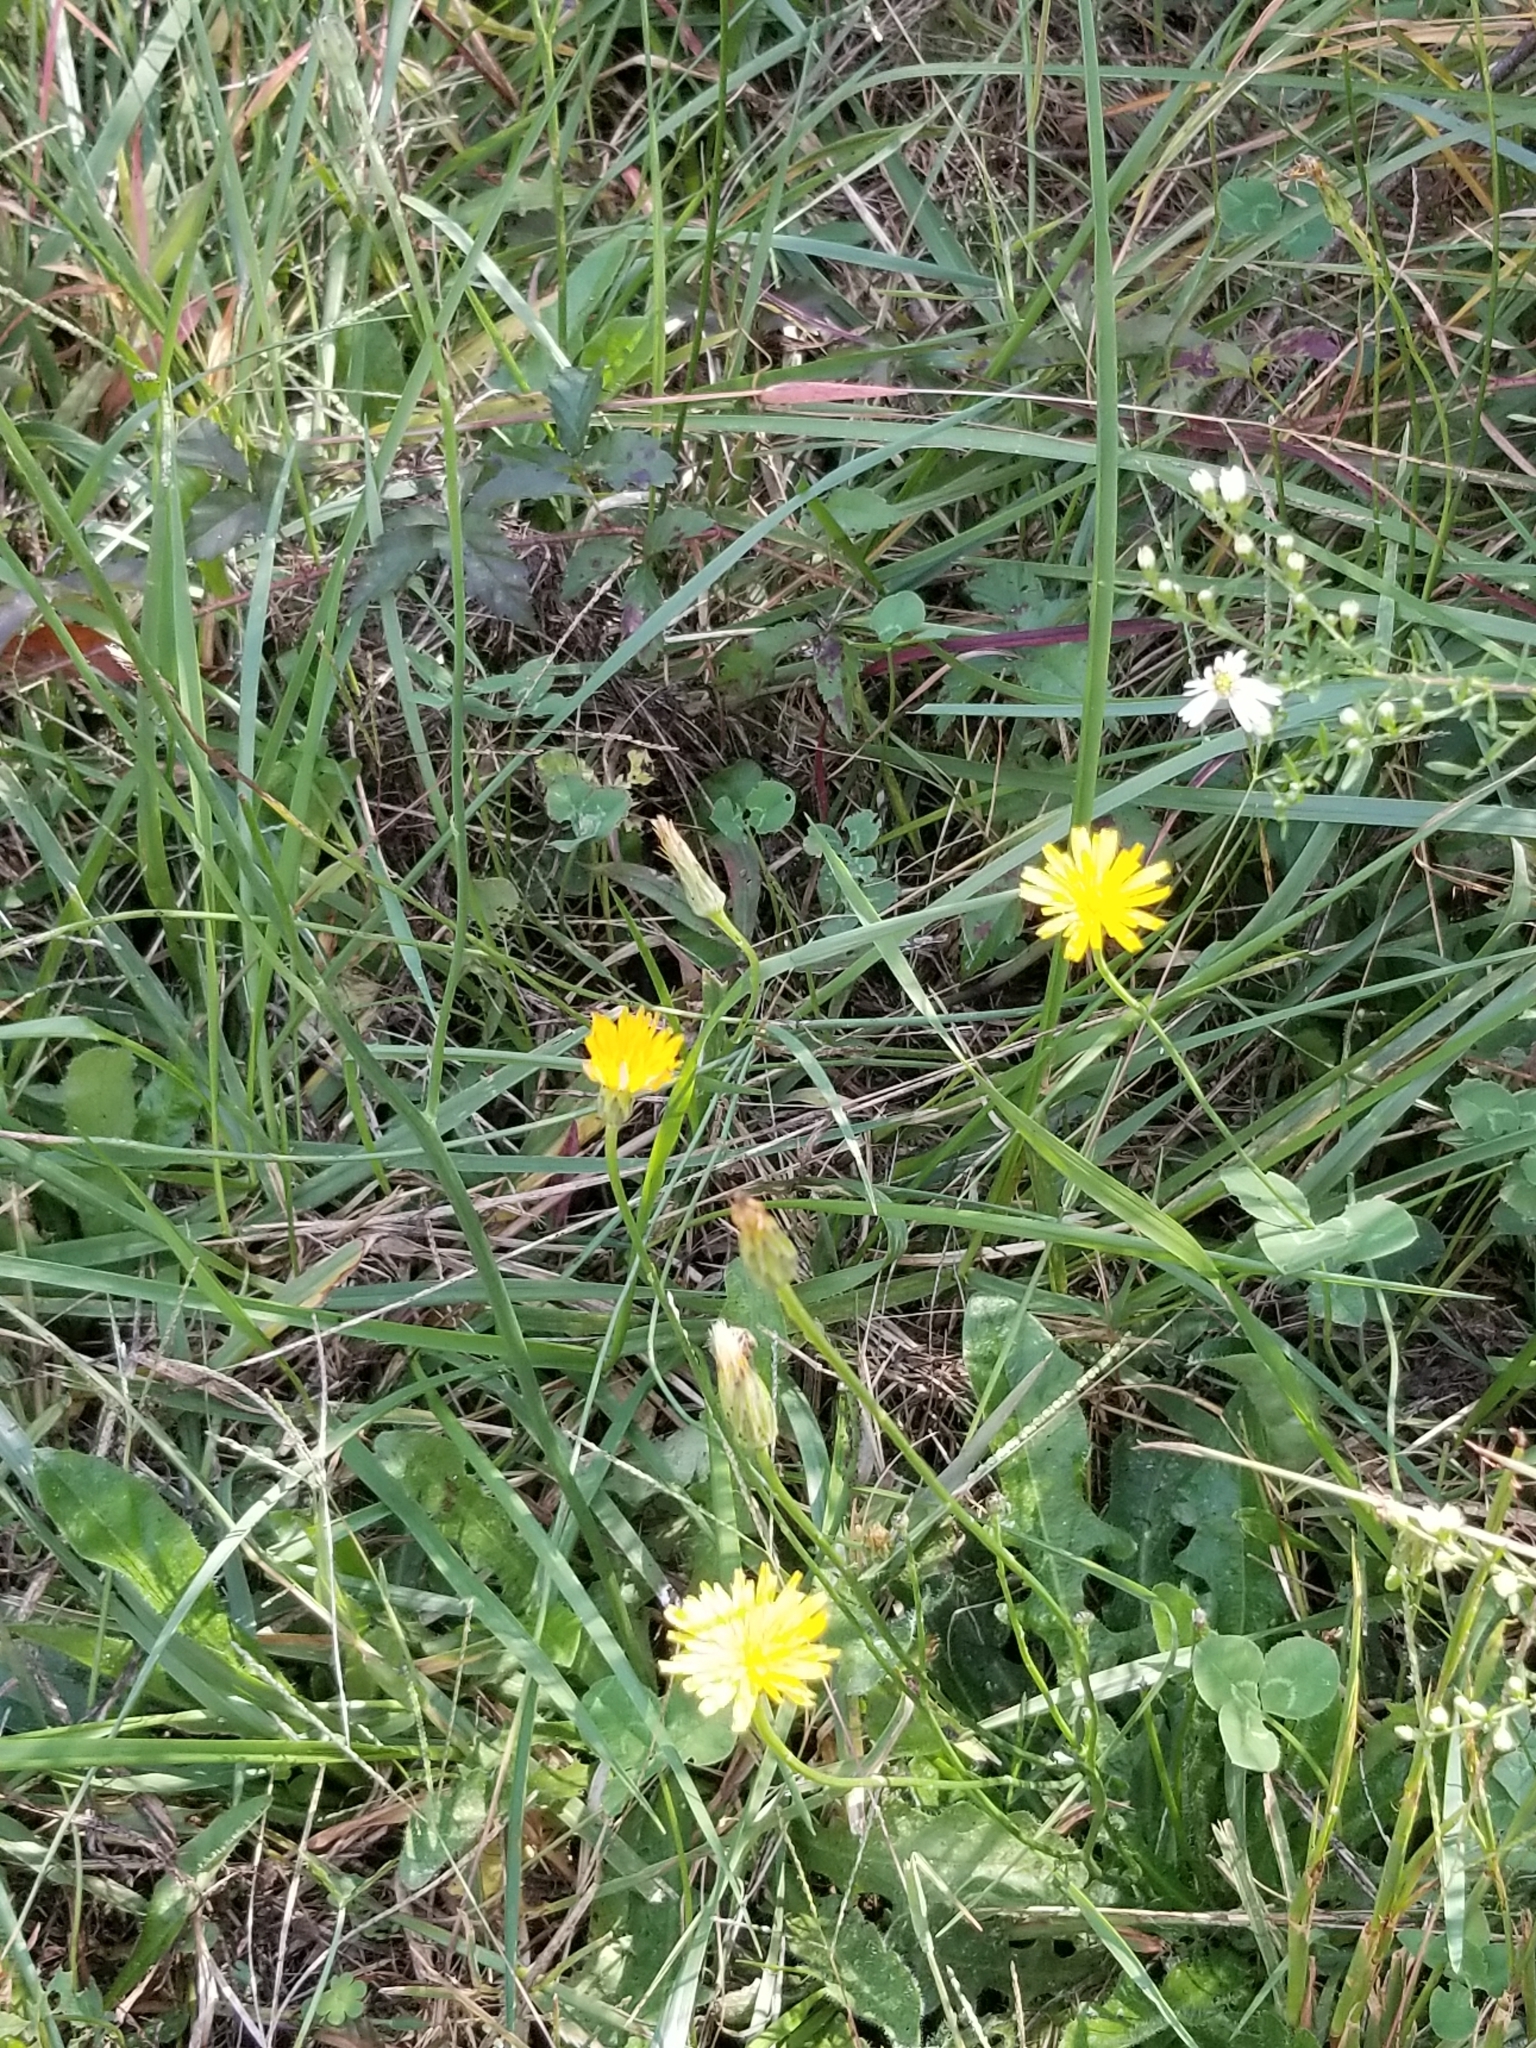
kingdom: Plantae
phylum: Tracheophyta
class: Magnoliopsida
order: Asterales
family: Asteraceae
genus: Hypochaeris
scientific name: Hypochaeris radicata
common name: Flatweed
